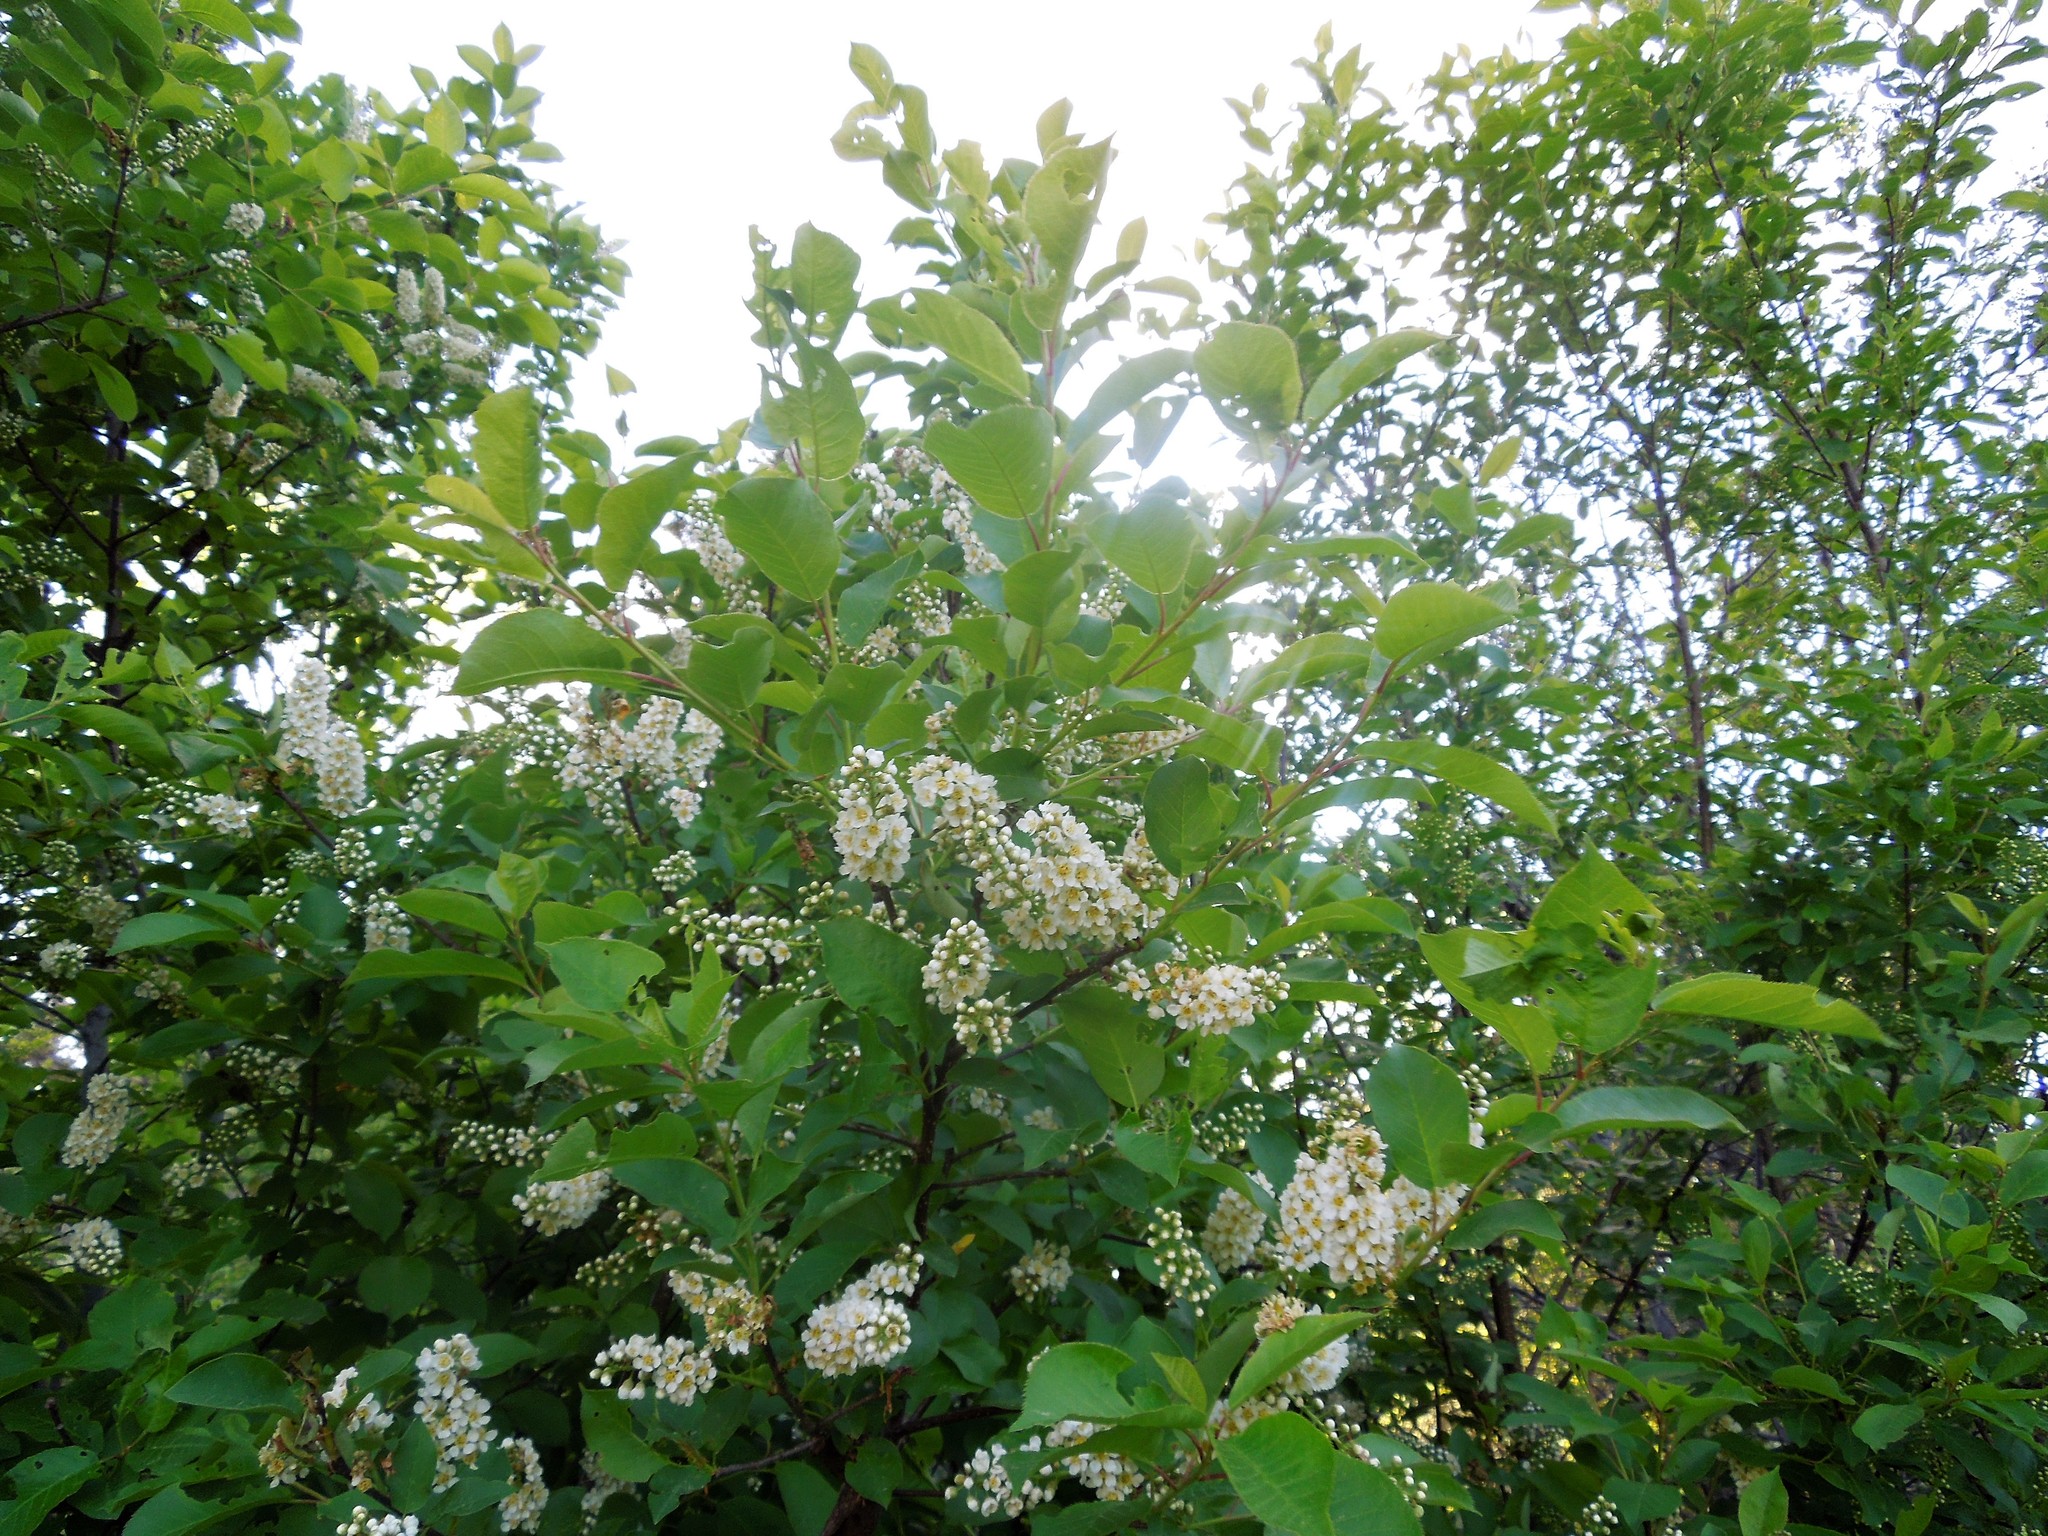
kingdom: Plantae
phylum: Tracheophyta
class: Magnoliopsida
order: Rosales
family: Rosaceae
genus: Prunus
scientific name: Prunus virginiana
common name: Chokecherry
